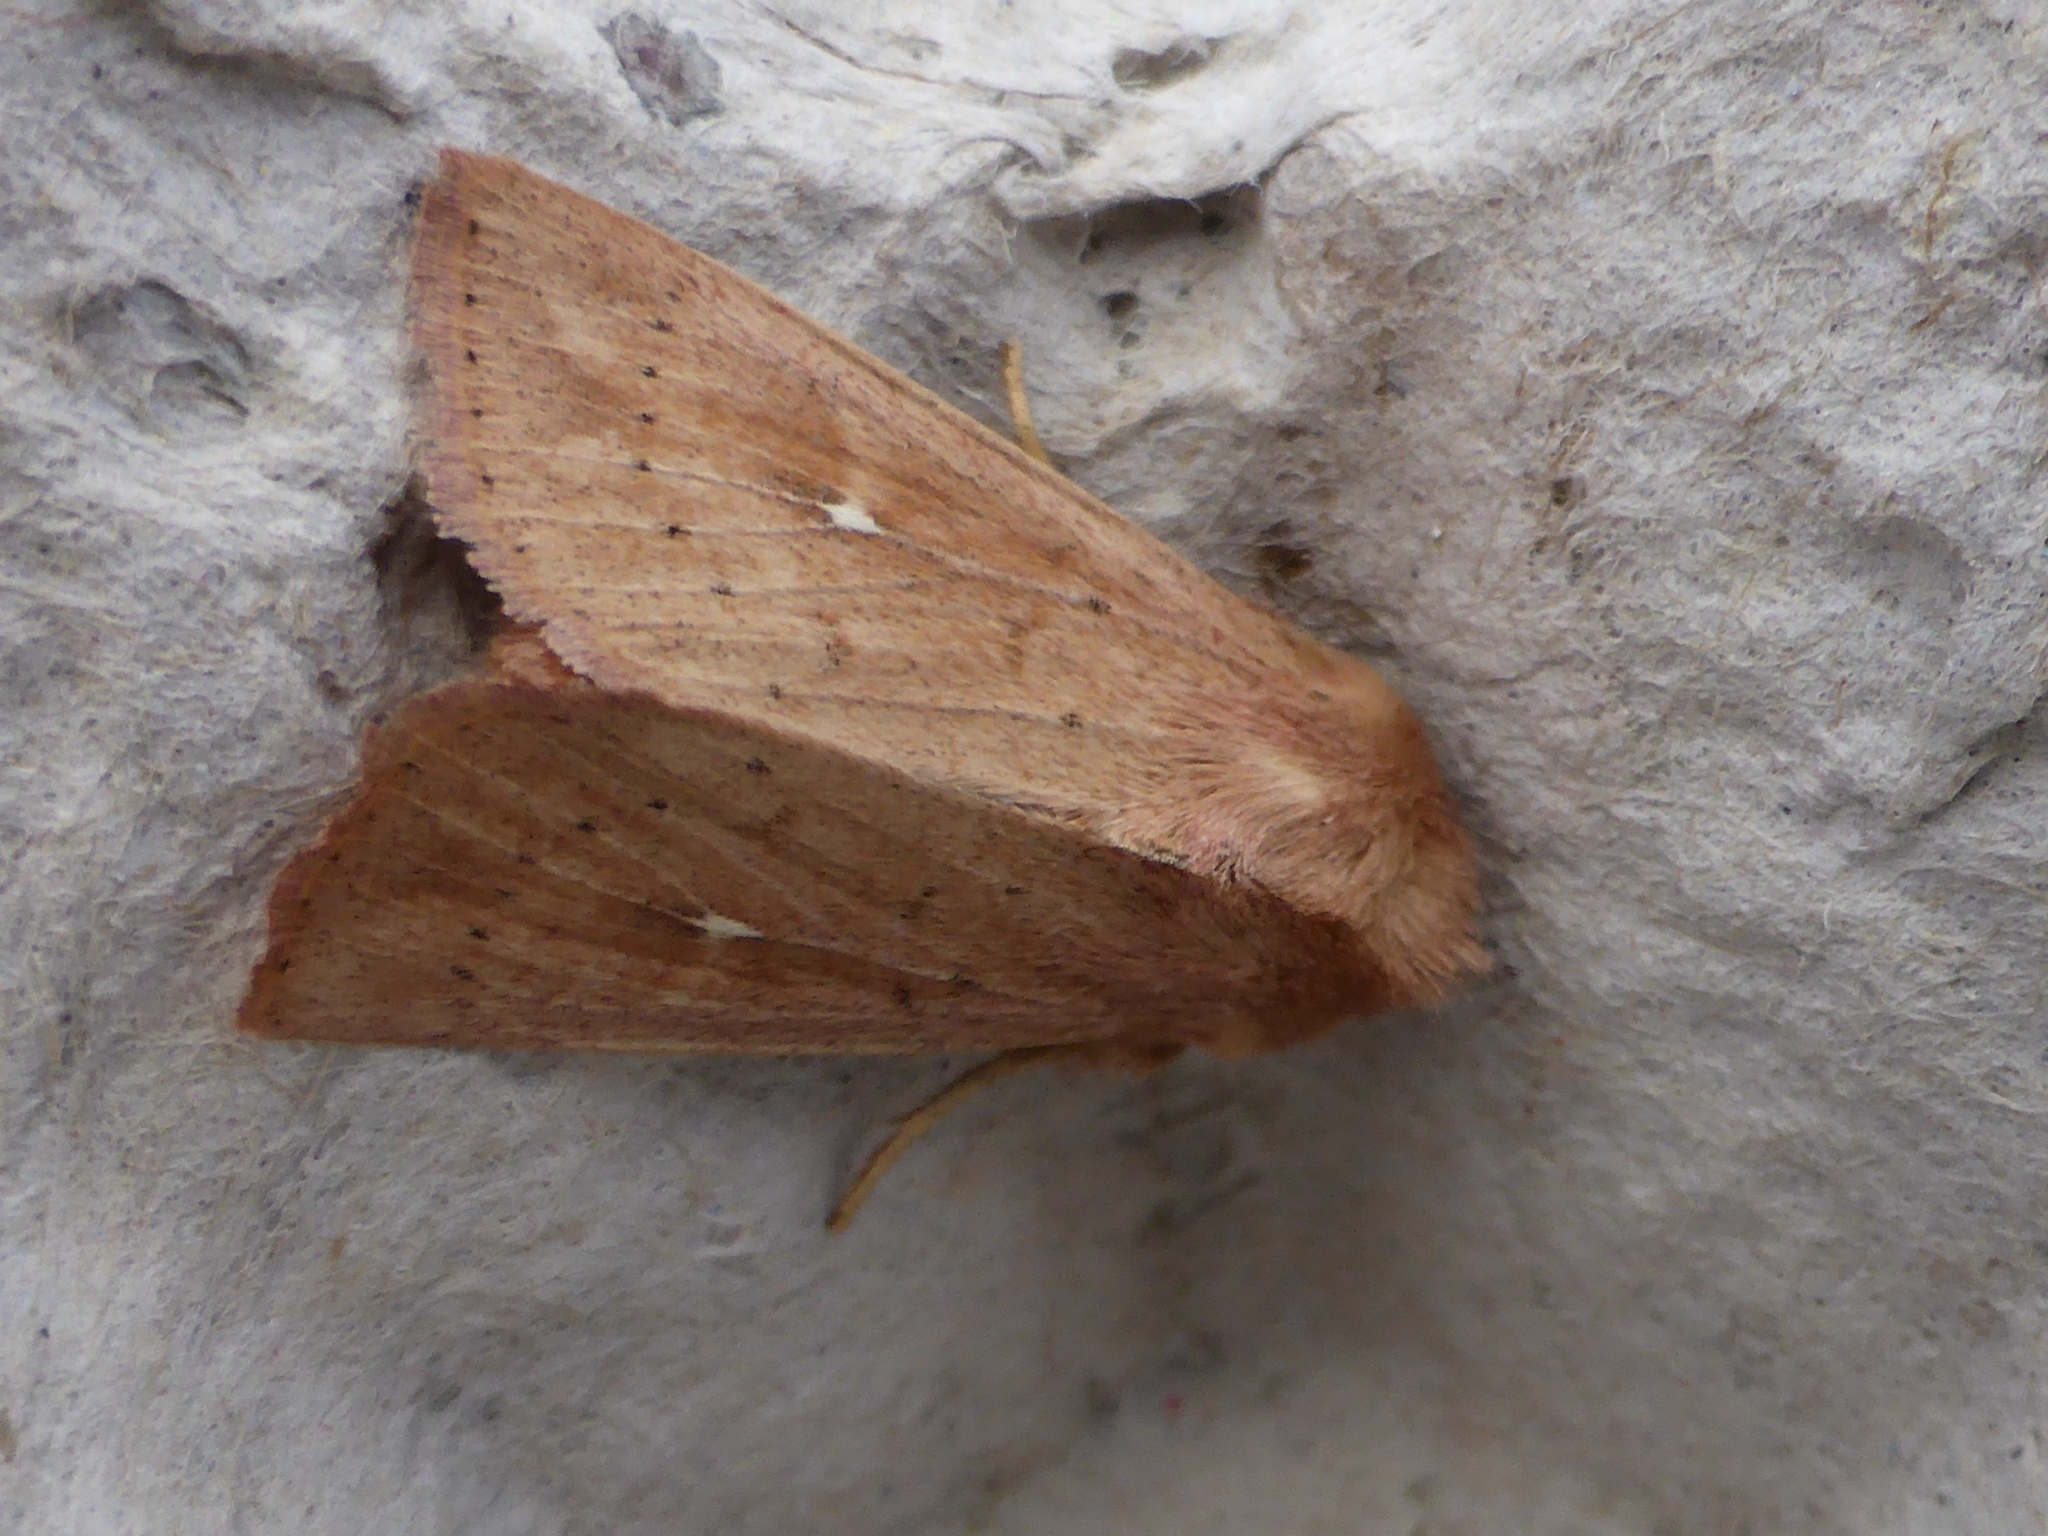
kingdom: Animalia
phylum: Arthropoda
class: Insecta
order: Lepidoptera
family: Noctuidae
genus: Mythimna
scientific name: Mythimna ferrago
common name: Clay
